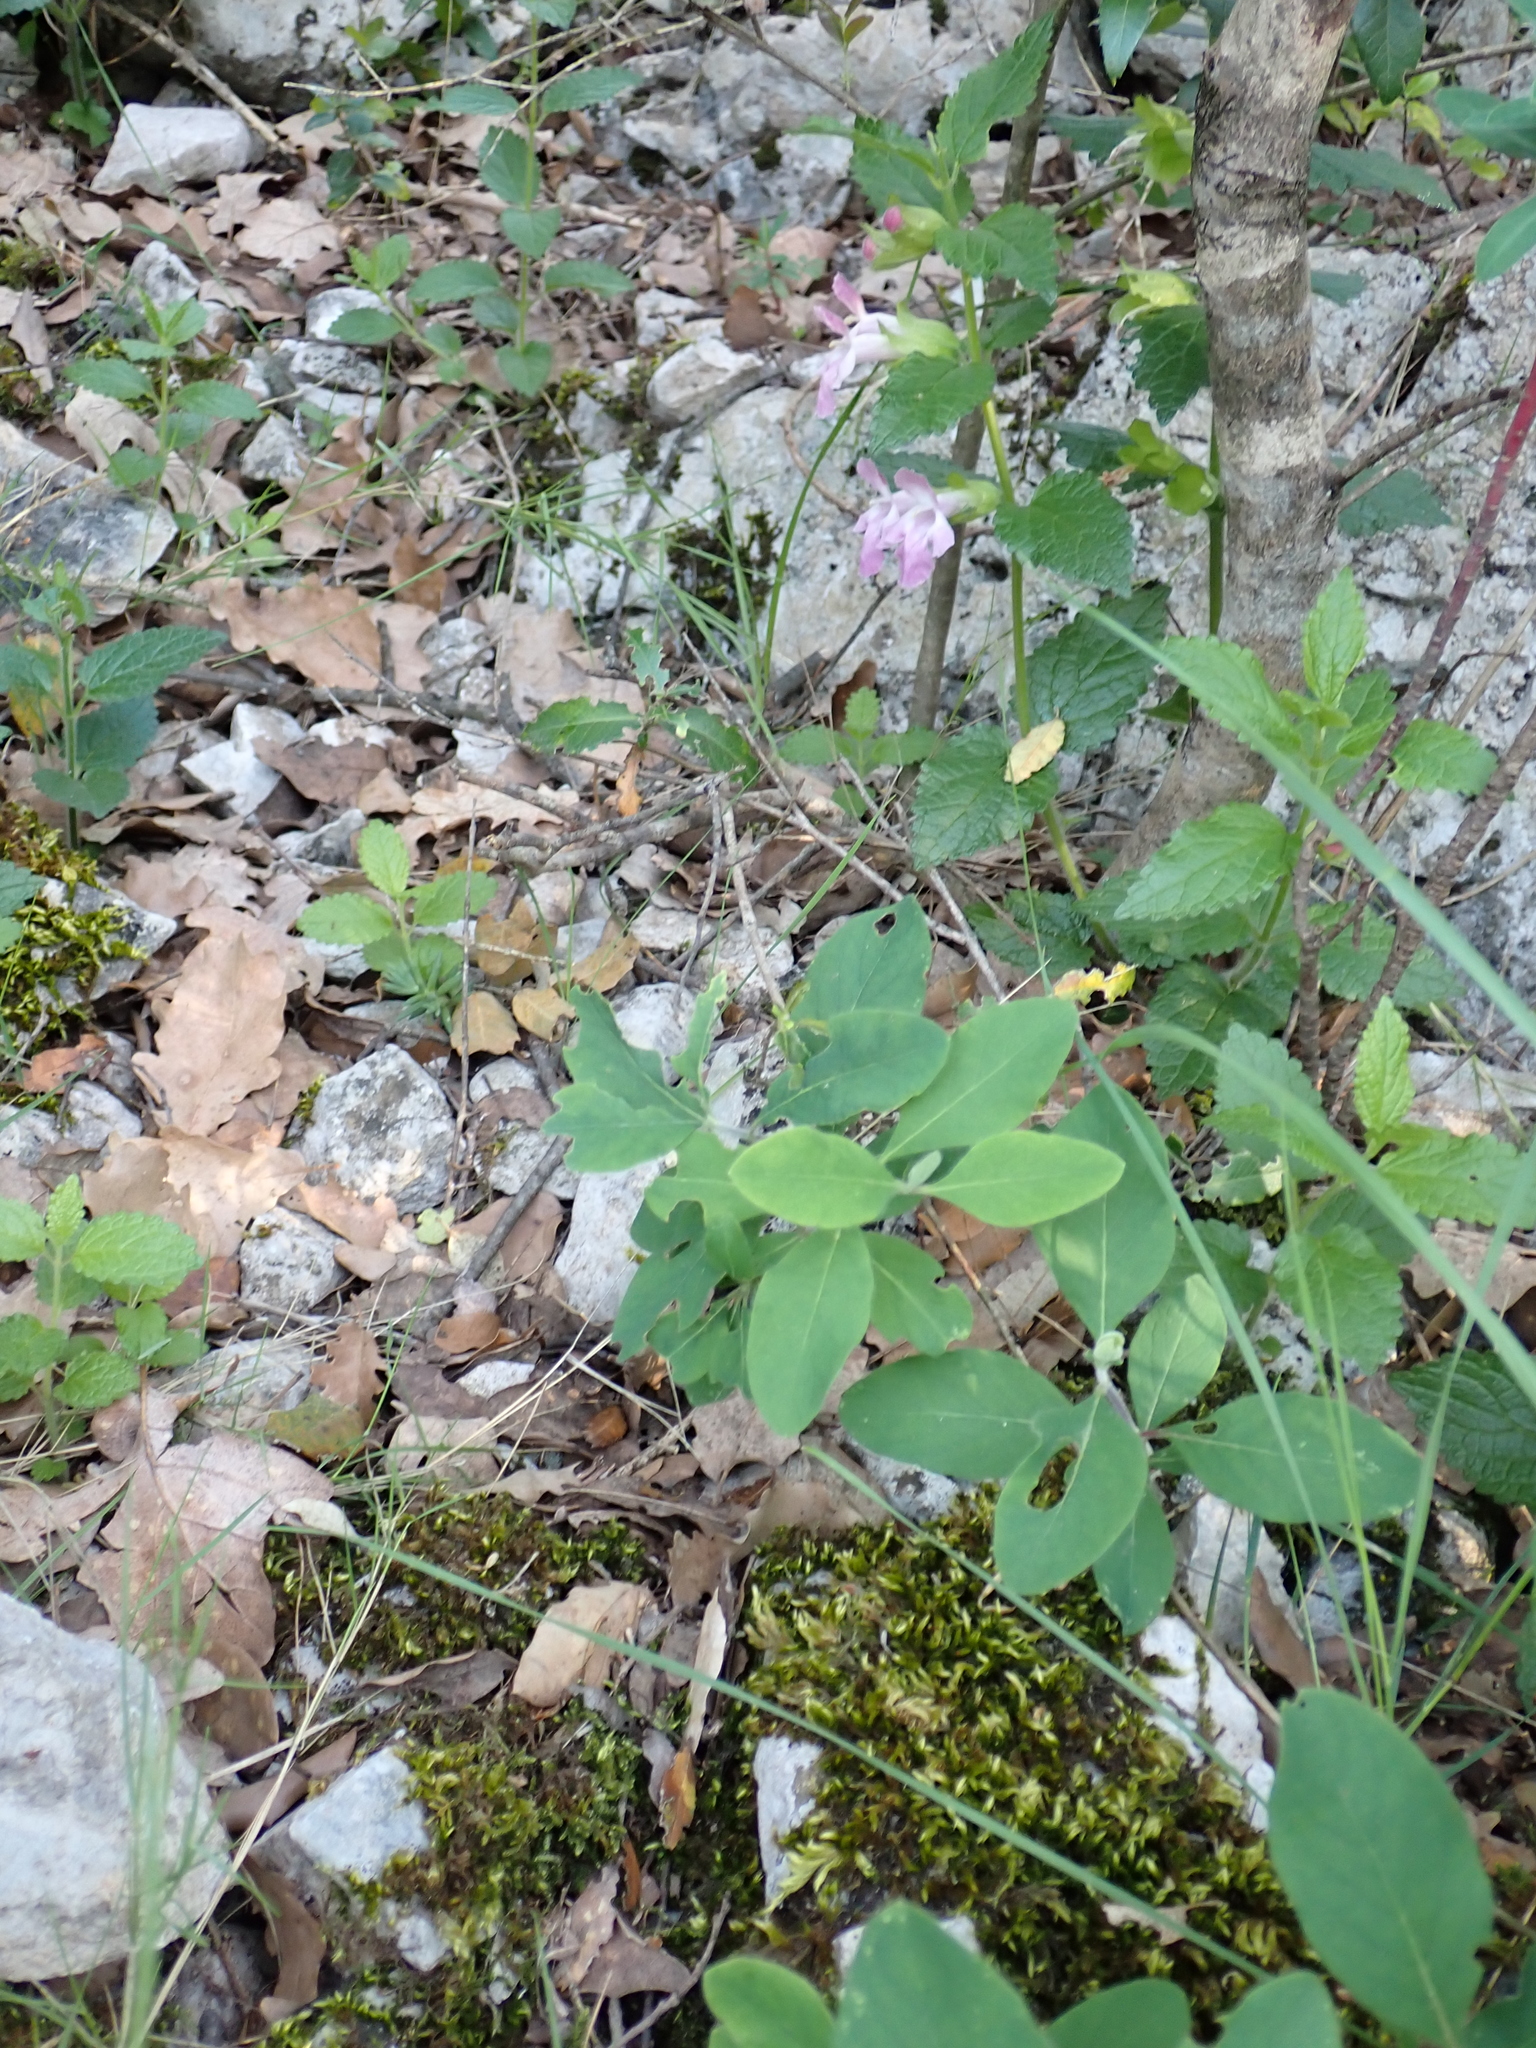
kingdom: Plantae
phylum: Tracheophyta
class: Magnoliopsida
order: Lamiales
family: Lamiaceae
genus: Melittis
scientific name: Melittis melissophyllum
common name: Bastard balm
